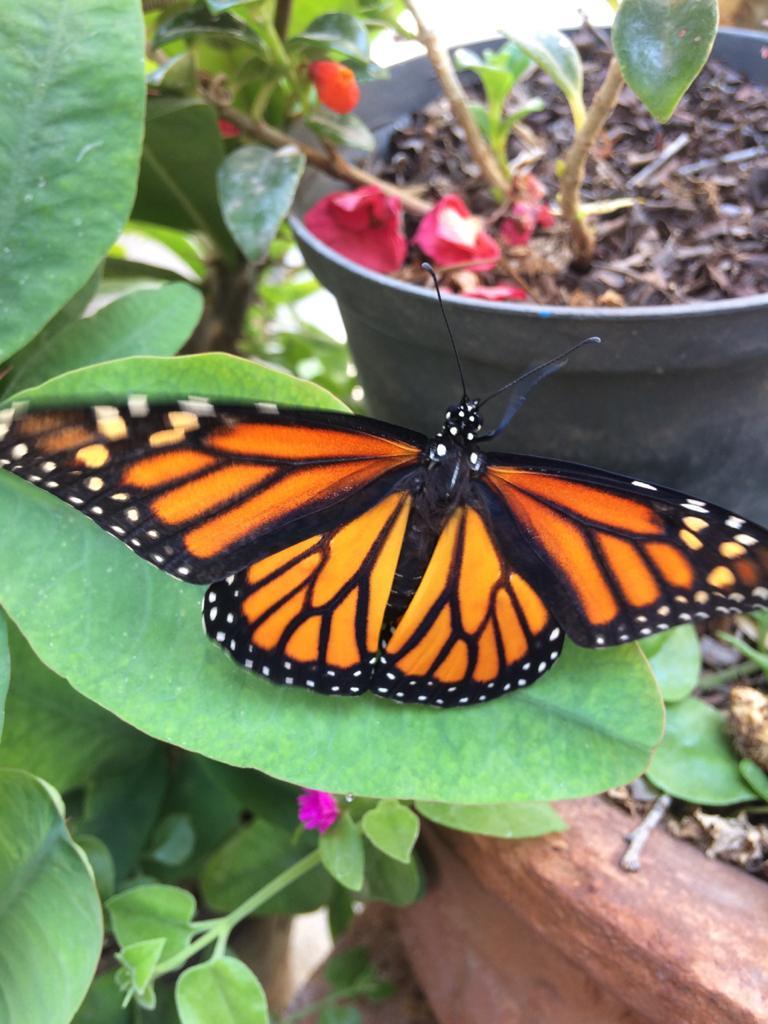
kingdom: Animalia
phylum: Arthropoda
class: Insecta
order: Lepidoptera
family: Nymphalidae
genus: Danaus
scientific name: Danaus plexippus
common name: Monarch
